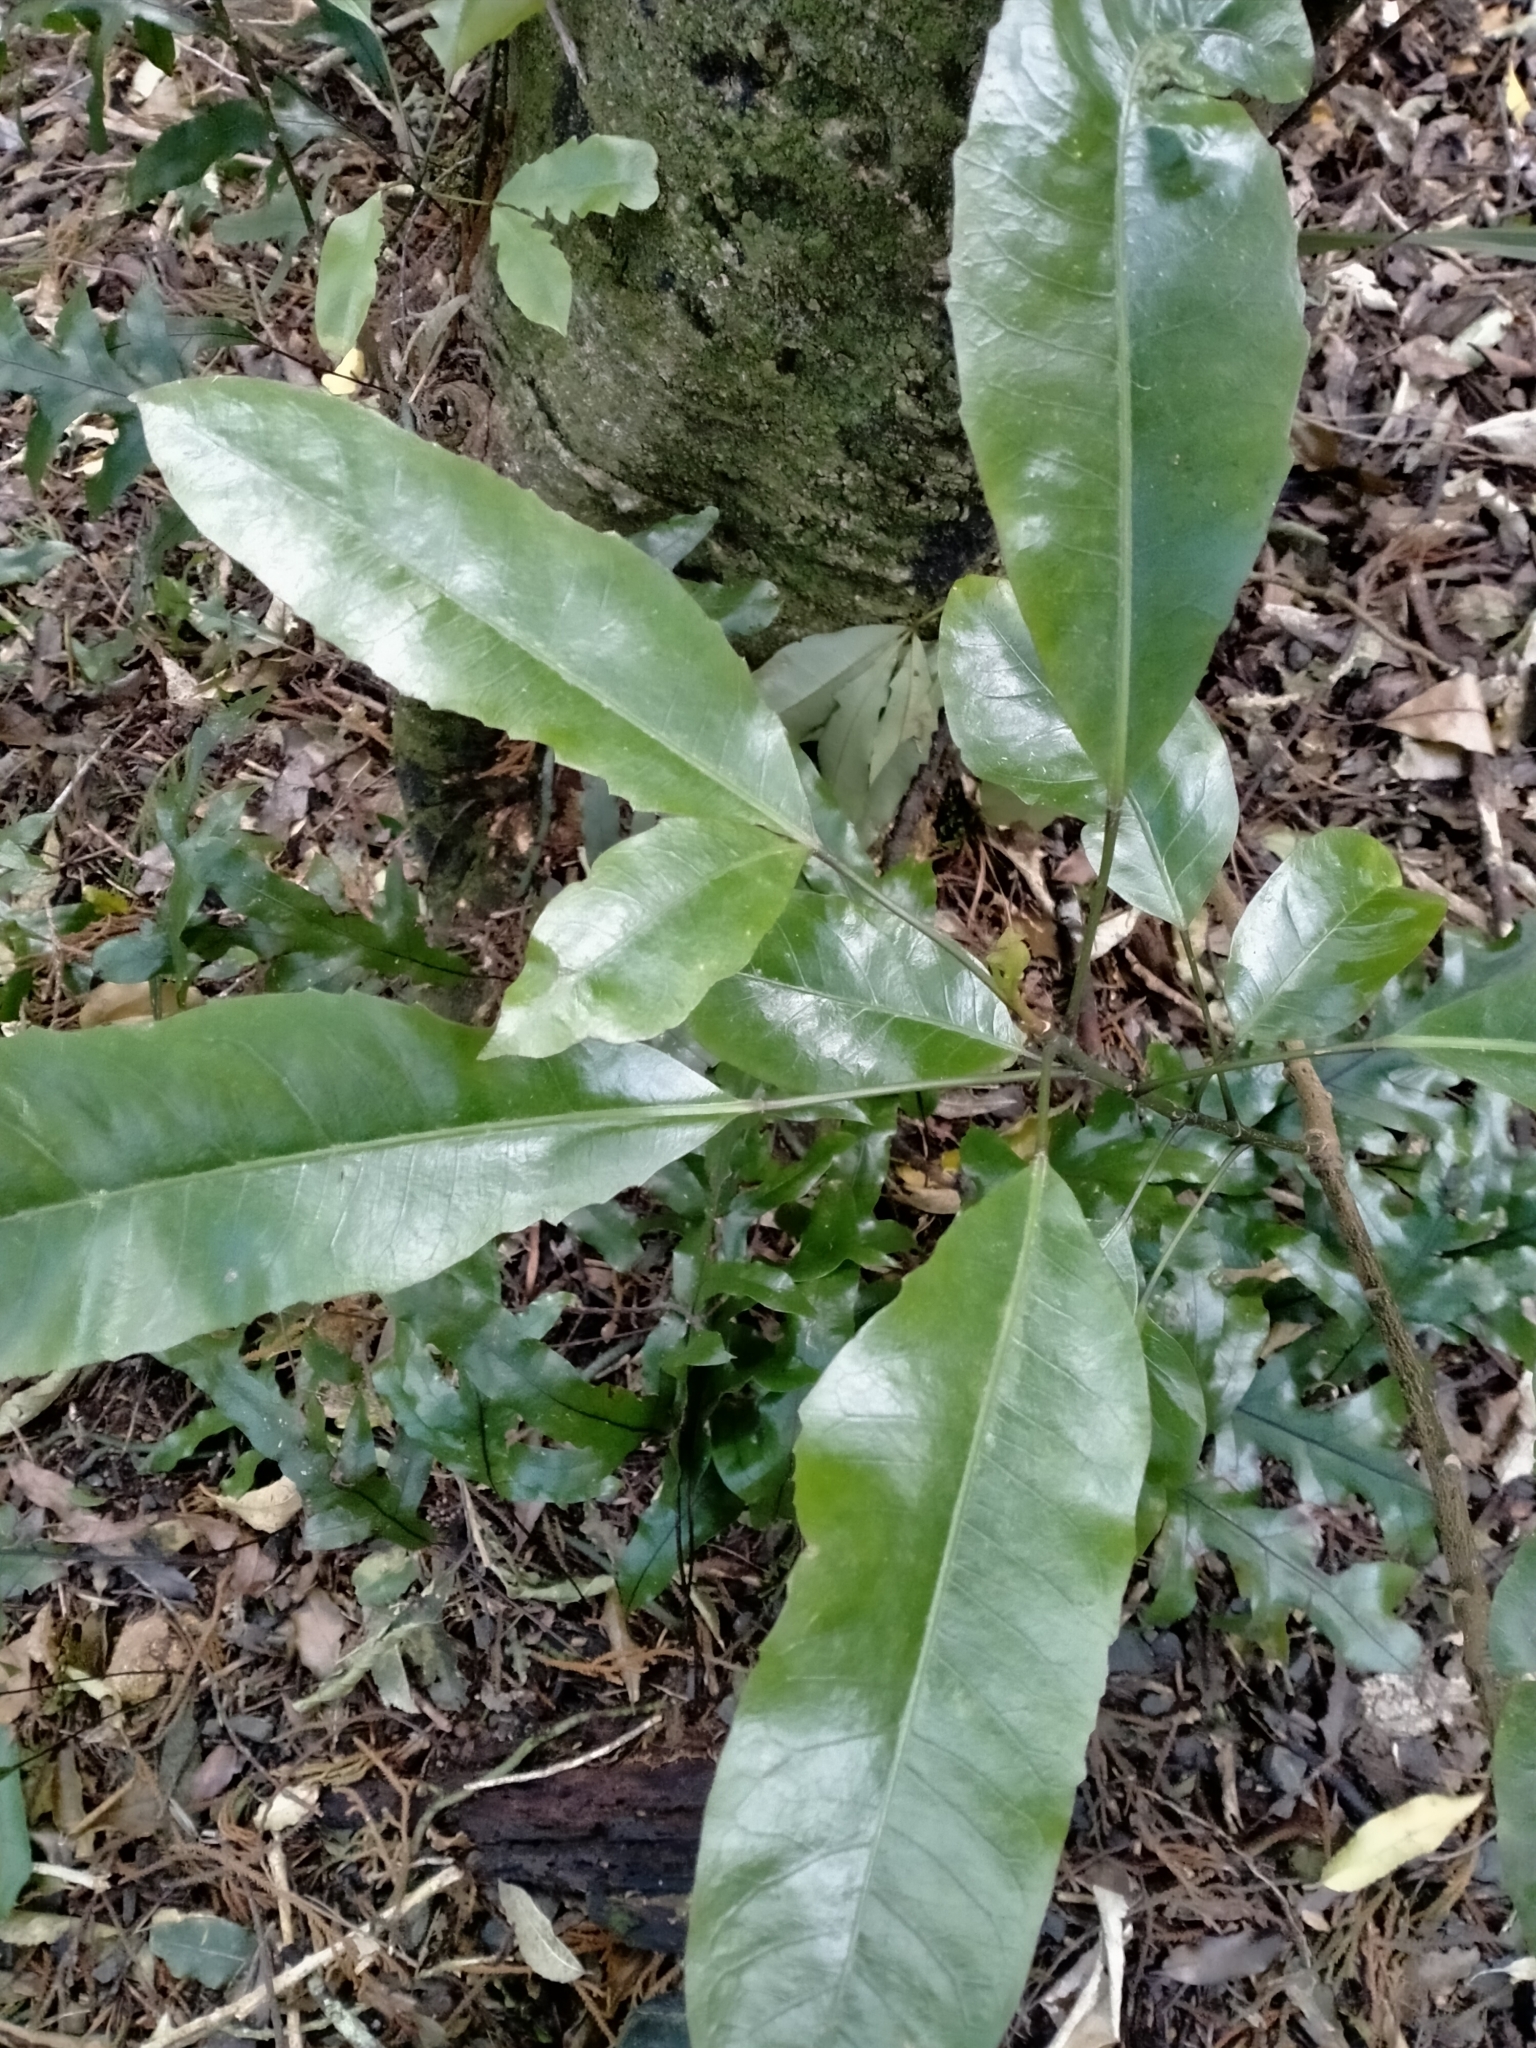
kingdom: Plantae
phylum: Tracheophyta
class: Magnoliopsida
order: Apiales
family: Araliaceae
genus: Raukaua
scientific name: Raukaua edgerleyi
